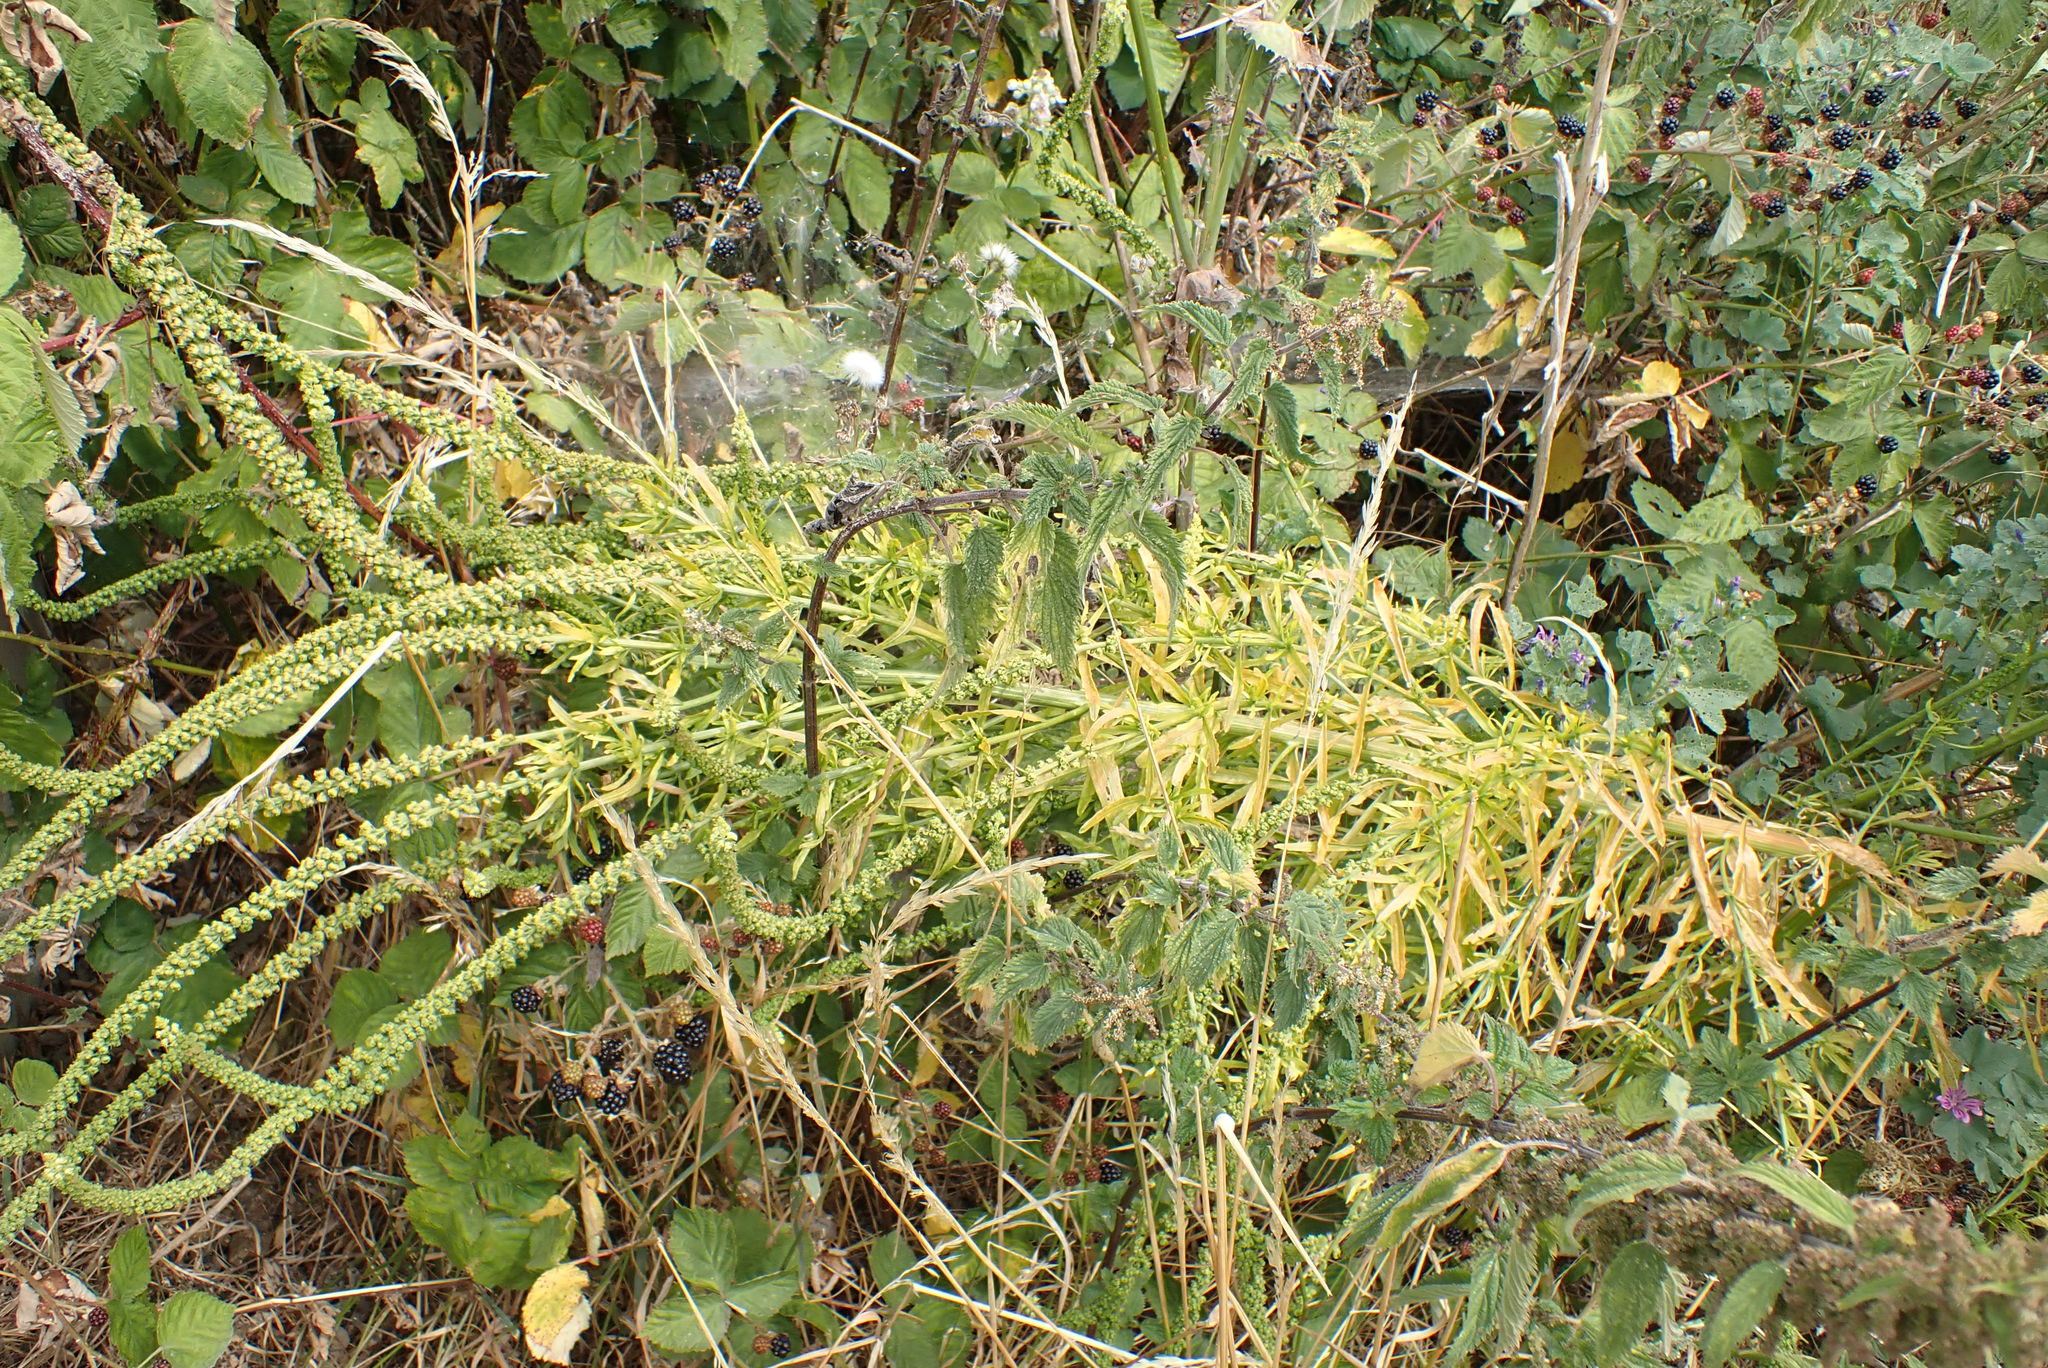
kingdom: Plantae
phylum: Tracheophyta
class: Magnoliopsida
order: Brassicales
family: Resedaceae
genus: Reseda
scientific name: Reseda luteola
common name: Weld
